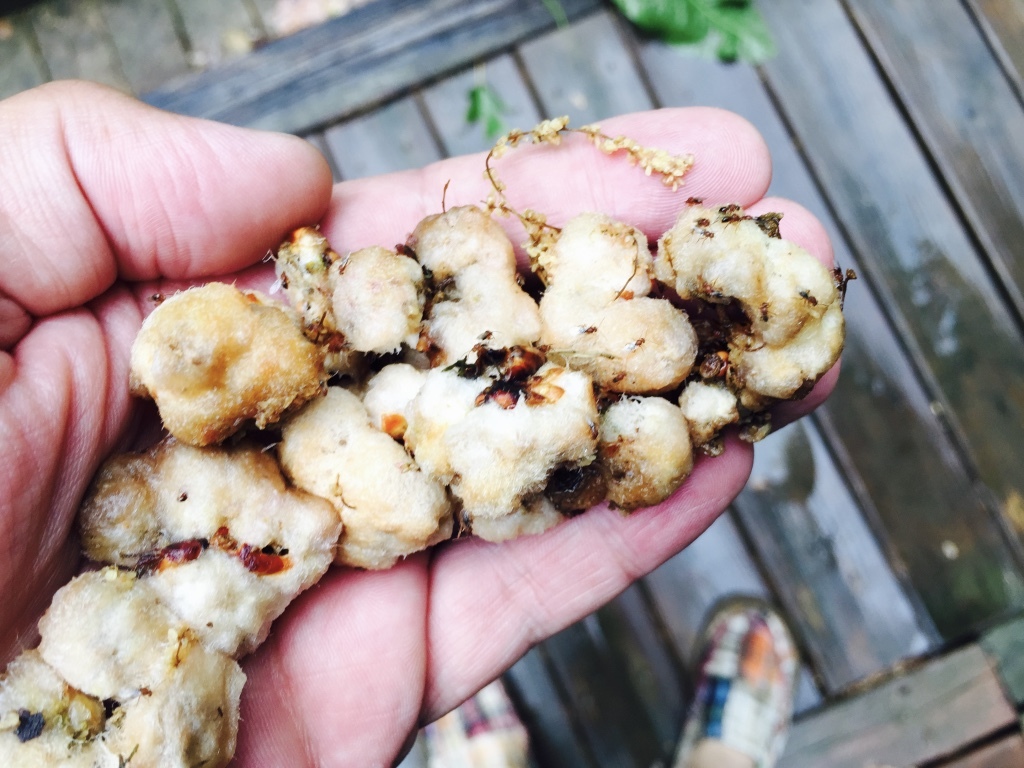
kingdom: Animalia
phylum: Arthropoda
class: Insecta
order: Hymenoptera
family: Cynipidae
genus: Callirhytis
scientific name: Callirhytis
